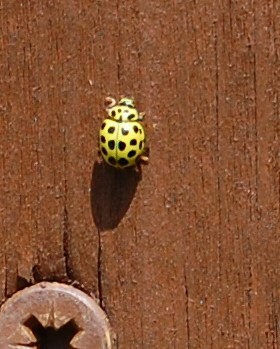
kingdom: Animalia
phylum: Arthropoda
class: Insecta
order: Coleoptera
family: Coccinellidae
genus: Psyllobora
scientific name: Psyllobora vigintiduopunctata
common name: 22-spot ladybird
